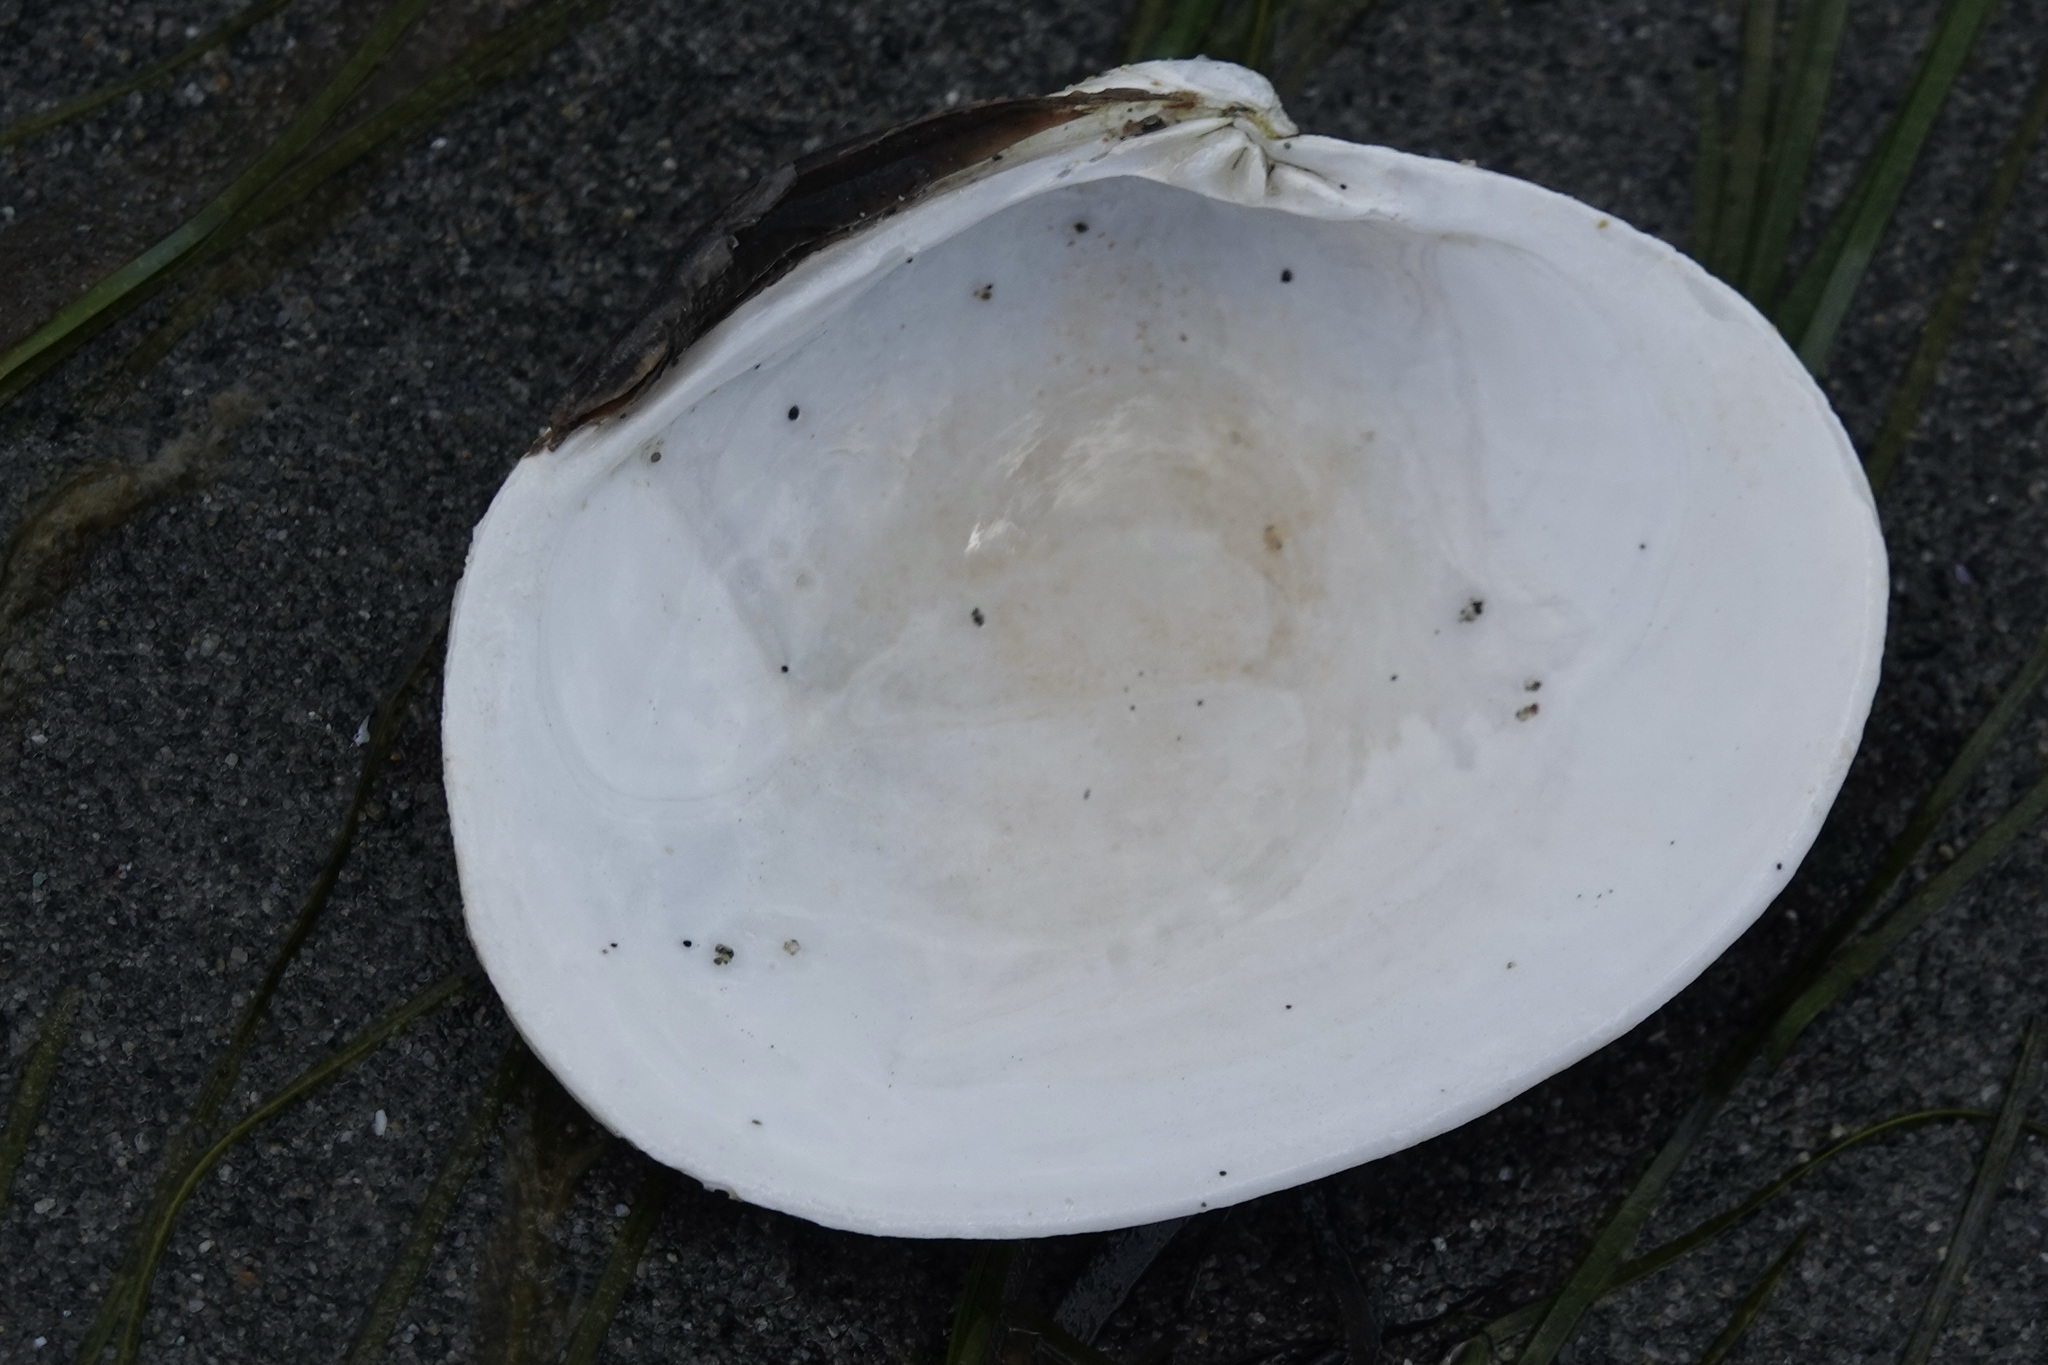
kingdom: Animalia
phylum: Mollusca
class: Bivalvia
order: Venerida
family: Veneridae
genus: Saxidomus
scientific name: Saxidomus gigantea
